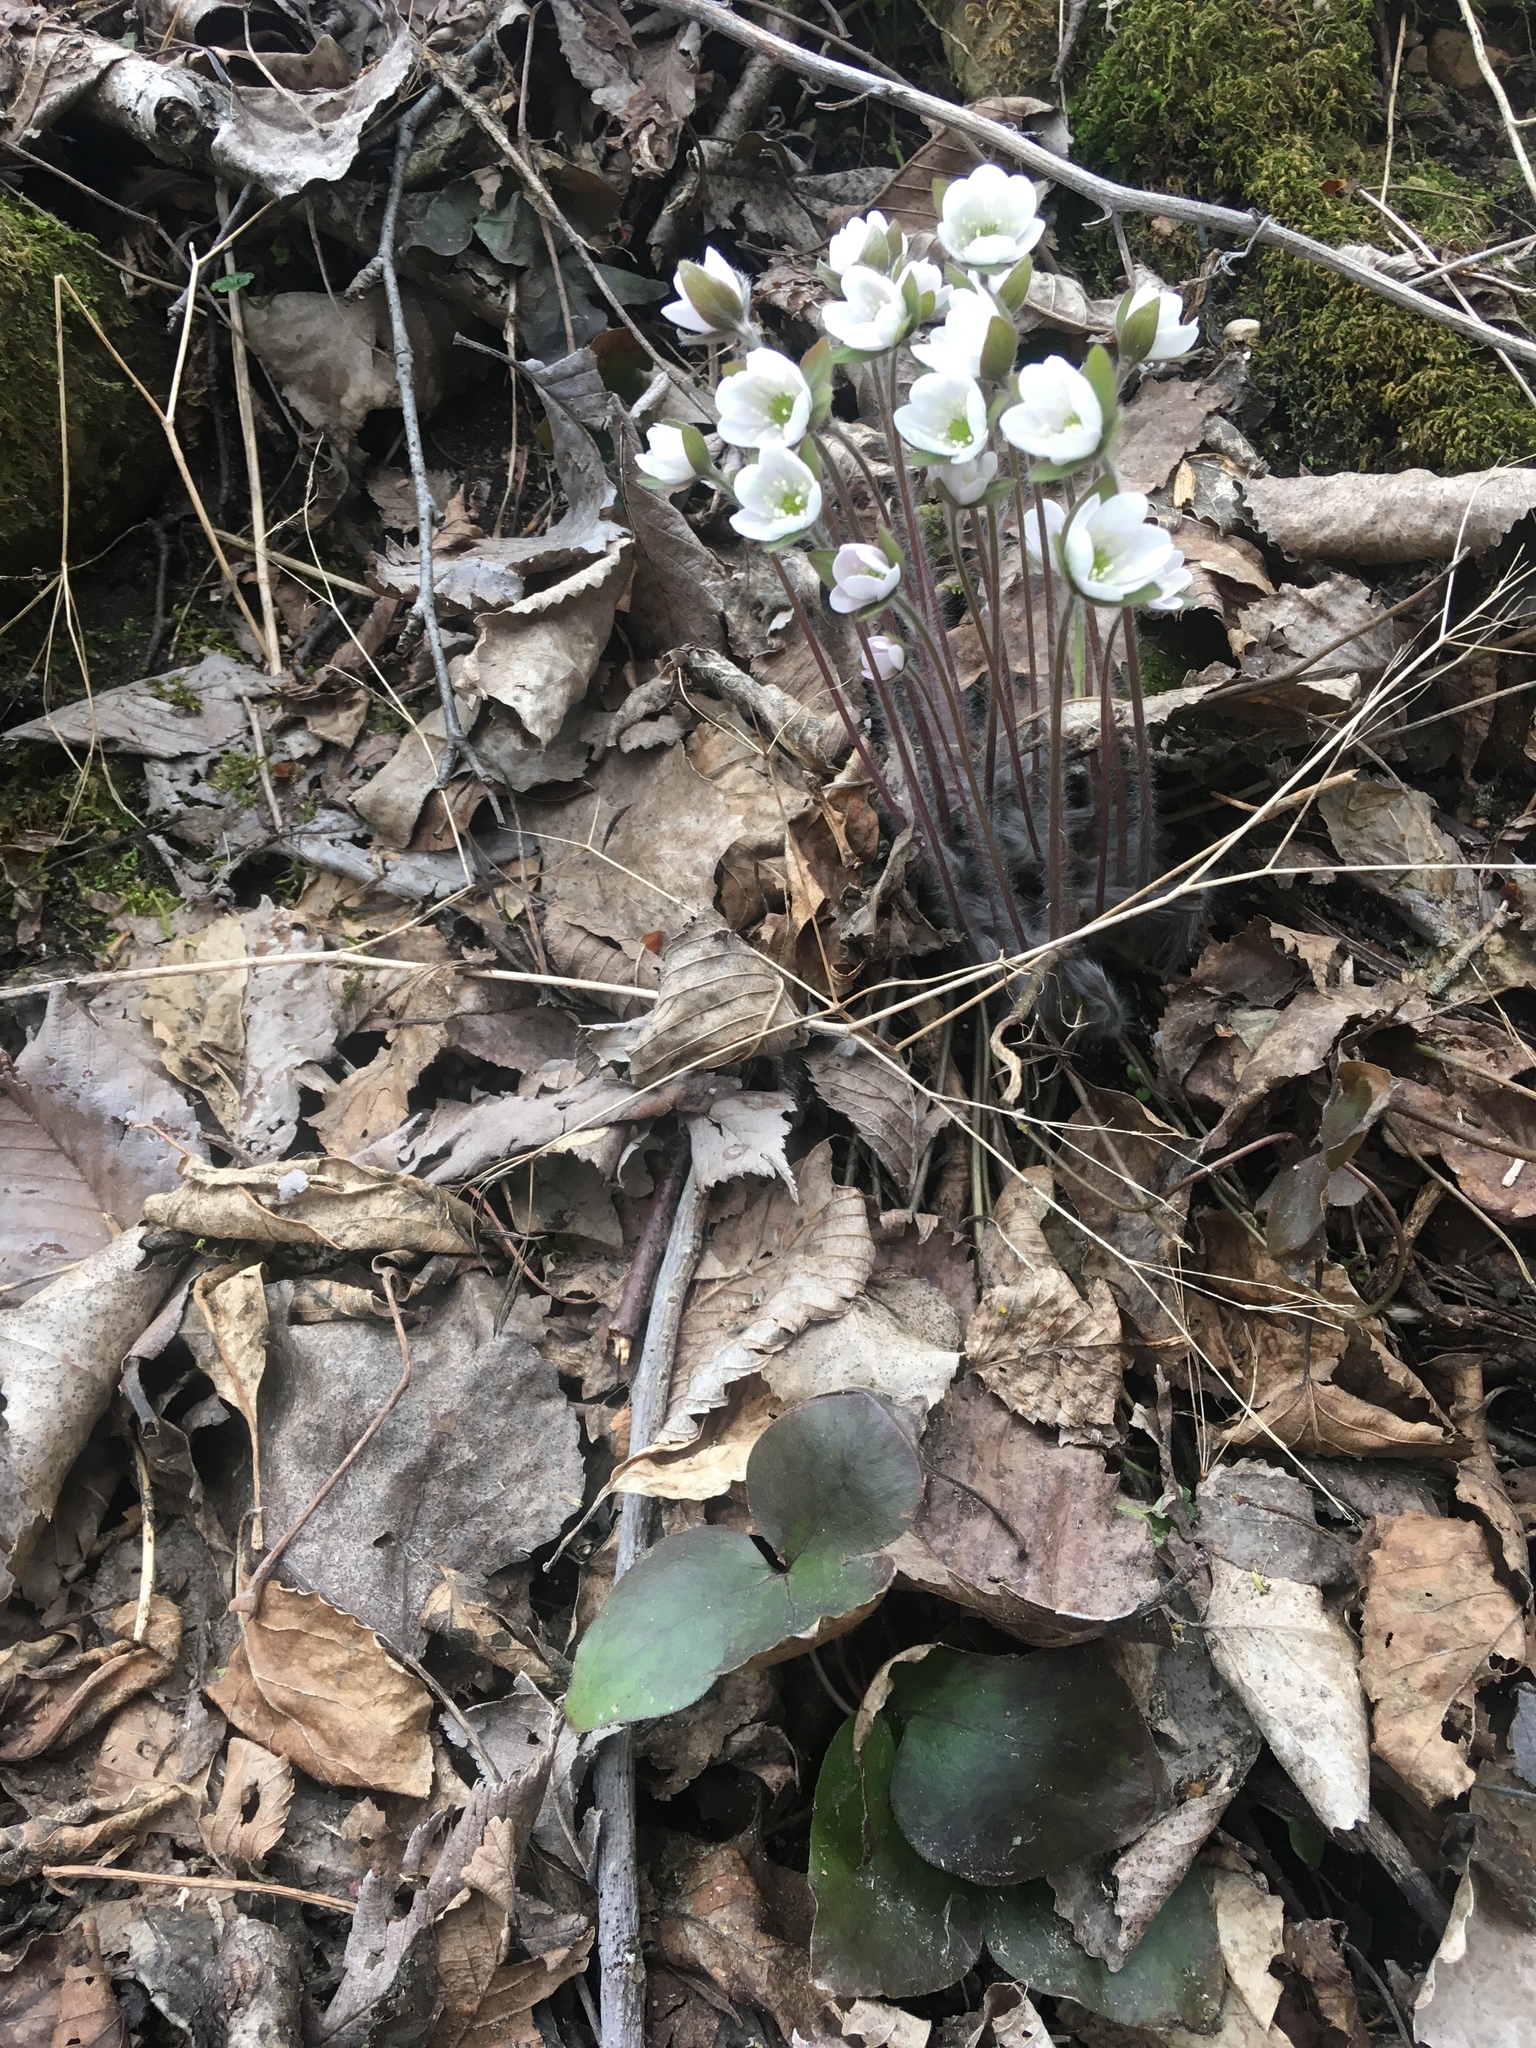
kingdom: Plantae
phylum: Tracheophyta
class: Magnoliopsida
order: Ranunculales
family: Ranunculaceae
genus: Hepatica
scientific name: Hepatica acutiloba
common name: Sharp-lobed hepatica
